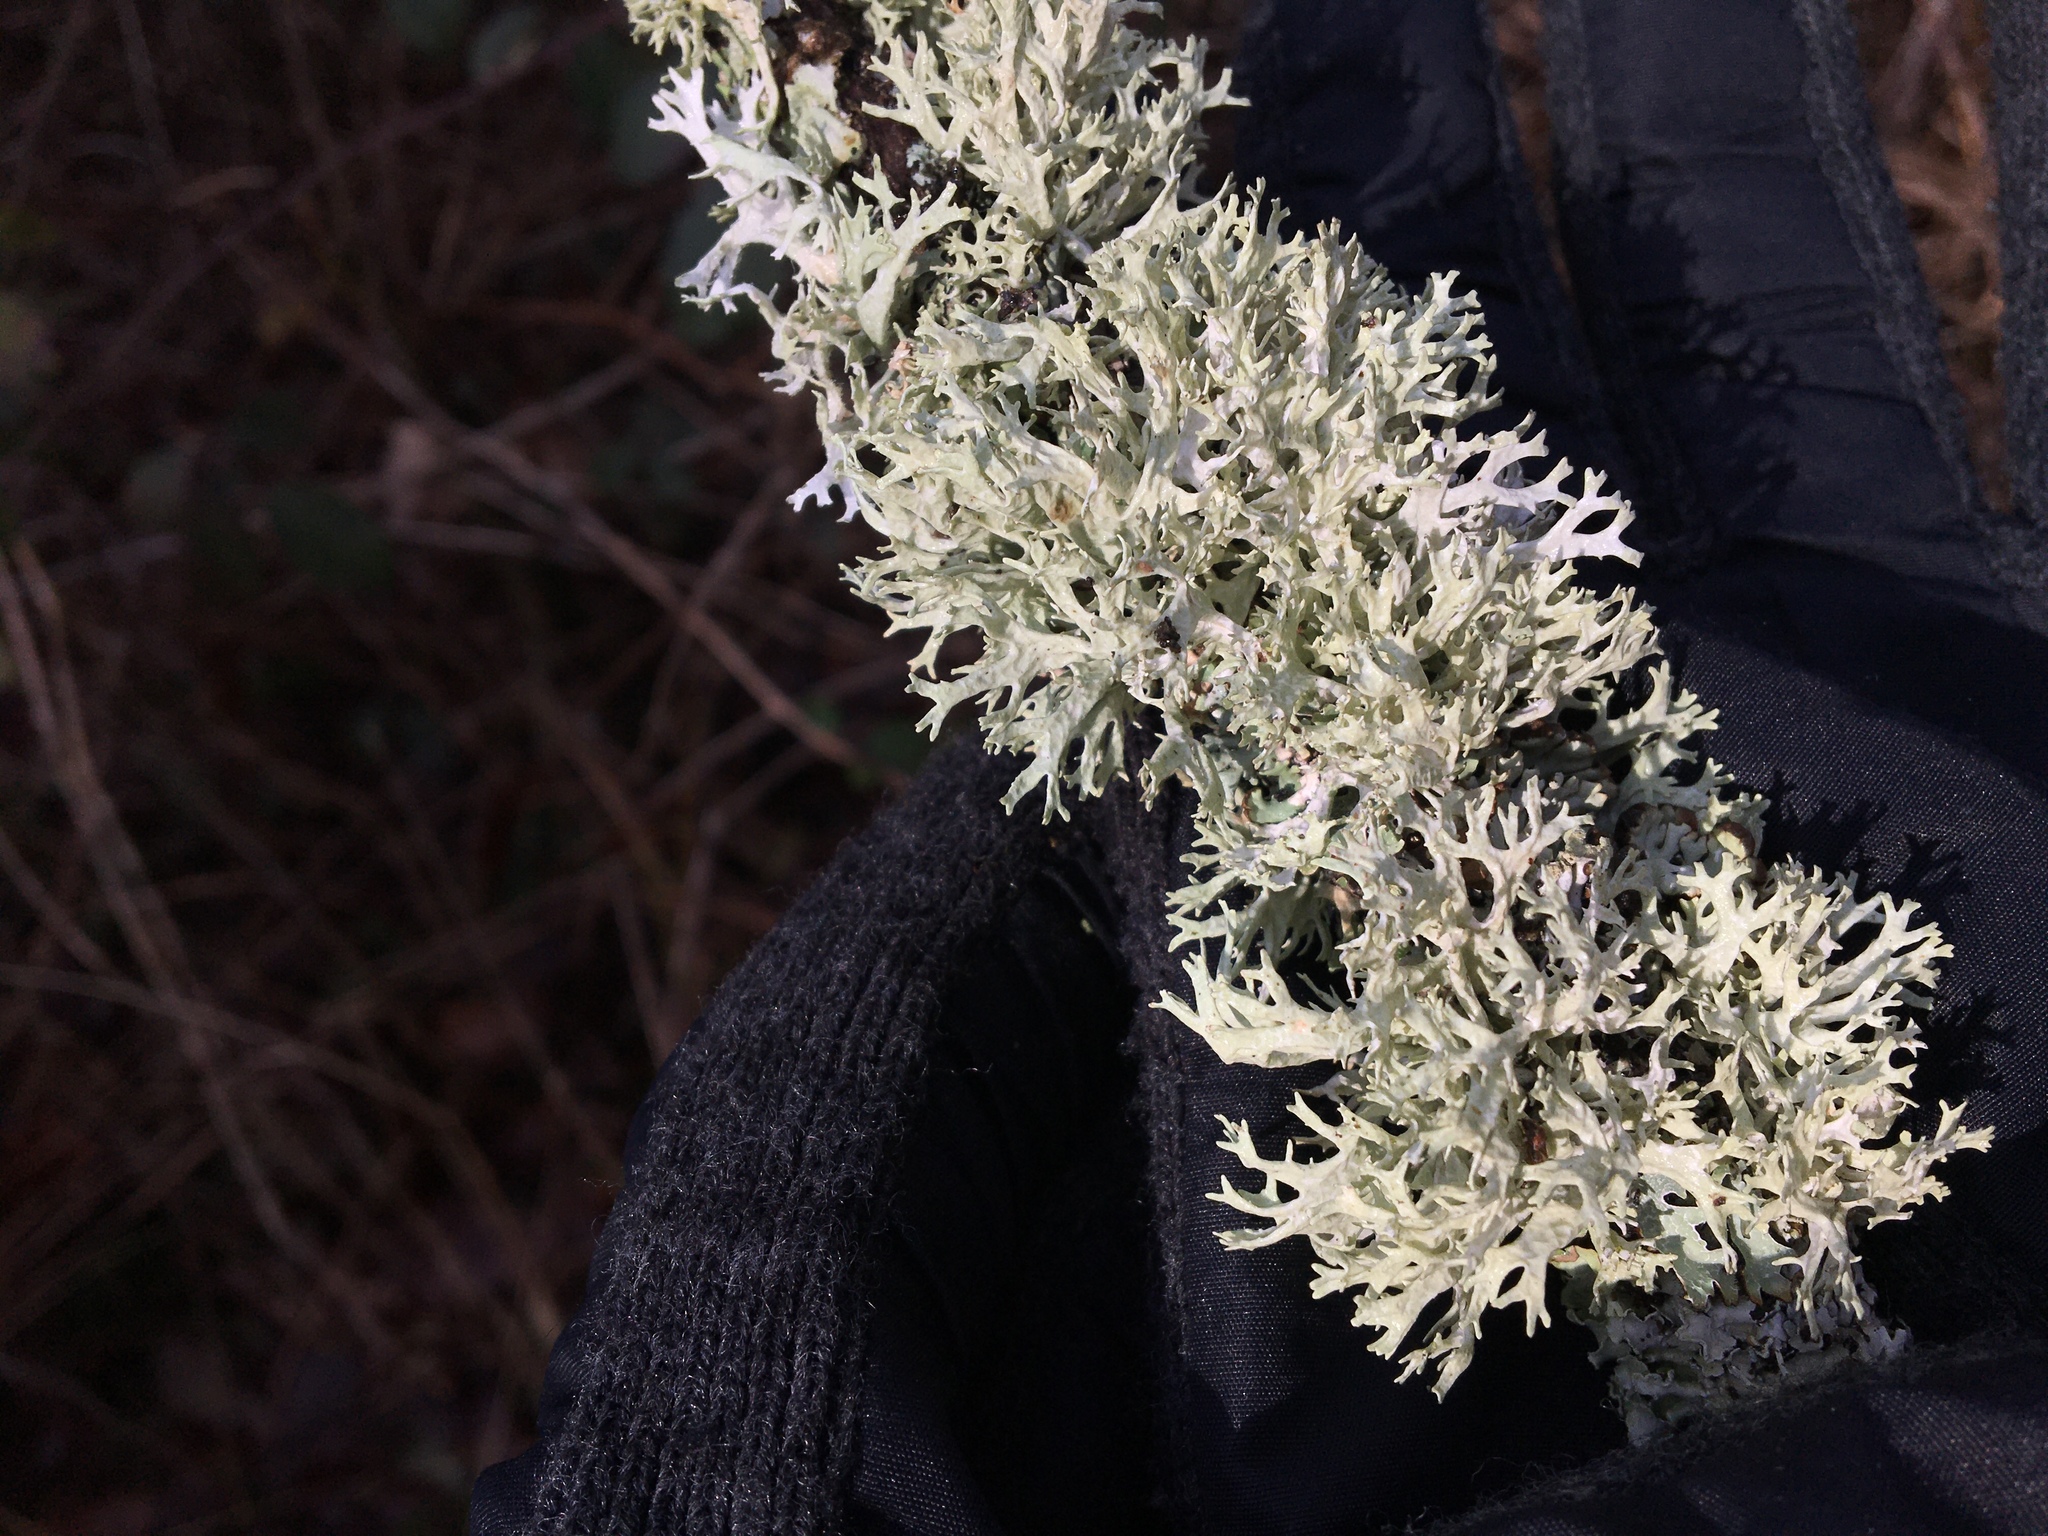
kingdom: Fungi
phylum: Ascomycota
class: Lecanoromycetes
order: Lecanorales
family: Parmeliaceae
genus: Evernia
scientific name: Evernia prunastri
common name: Oak moss
